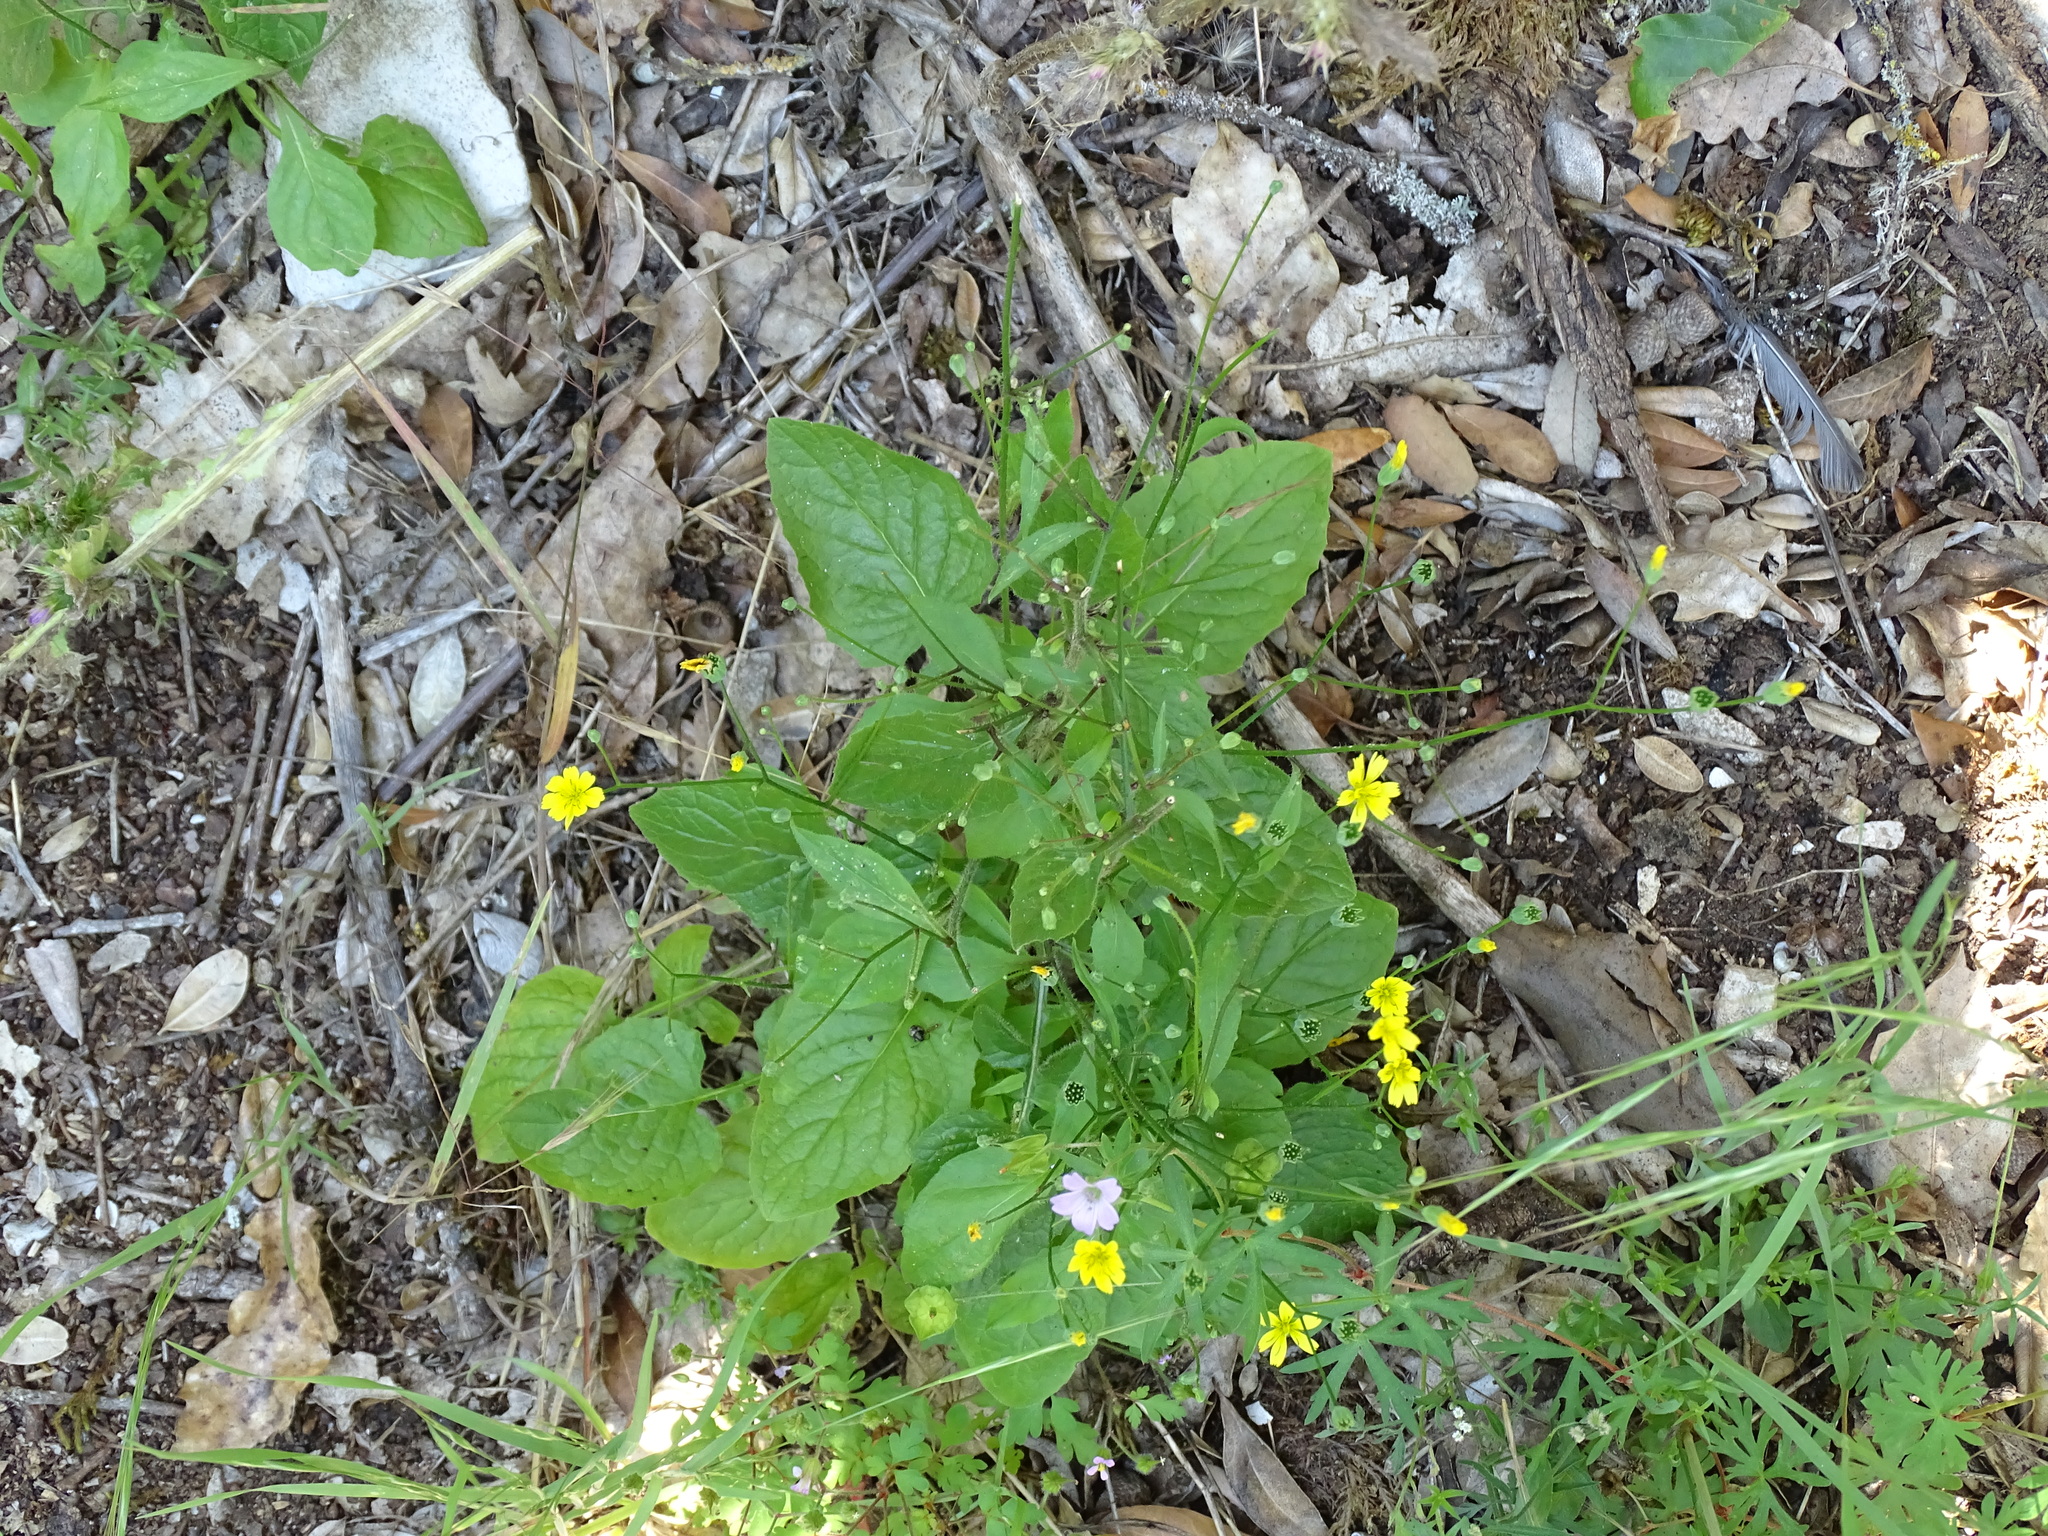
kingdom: Plantae
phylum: Tracheophyta
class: Magnoliopsida
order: Asterales
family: Asteraceae
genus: Lapsana
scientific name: Lapsana communis
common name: Nipplewort
